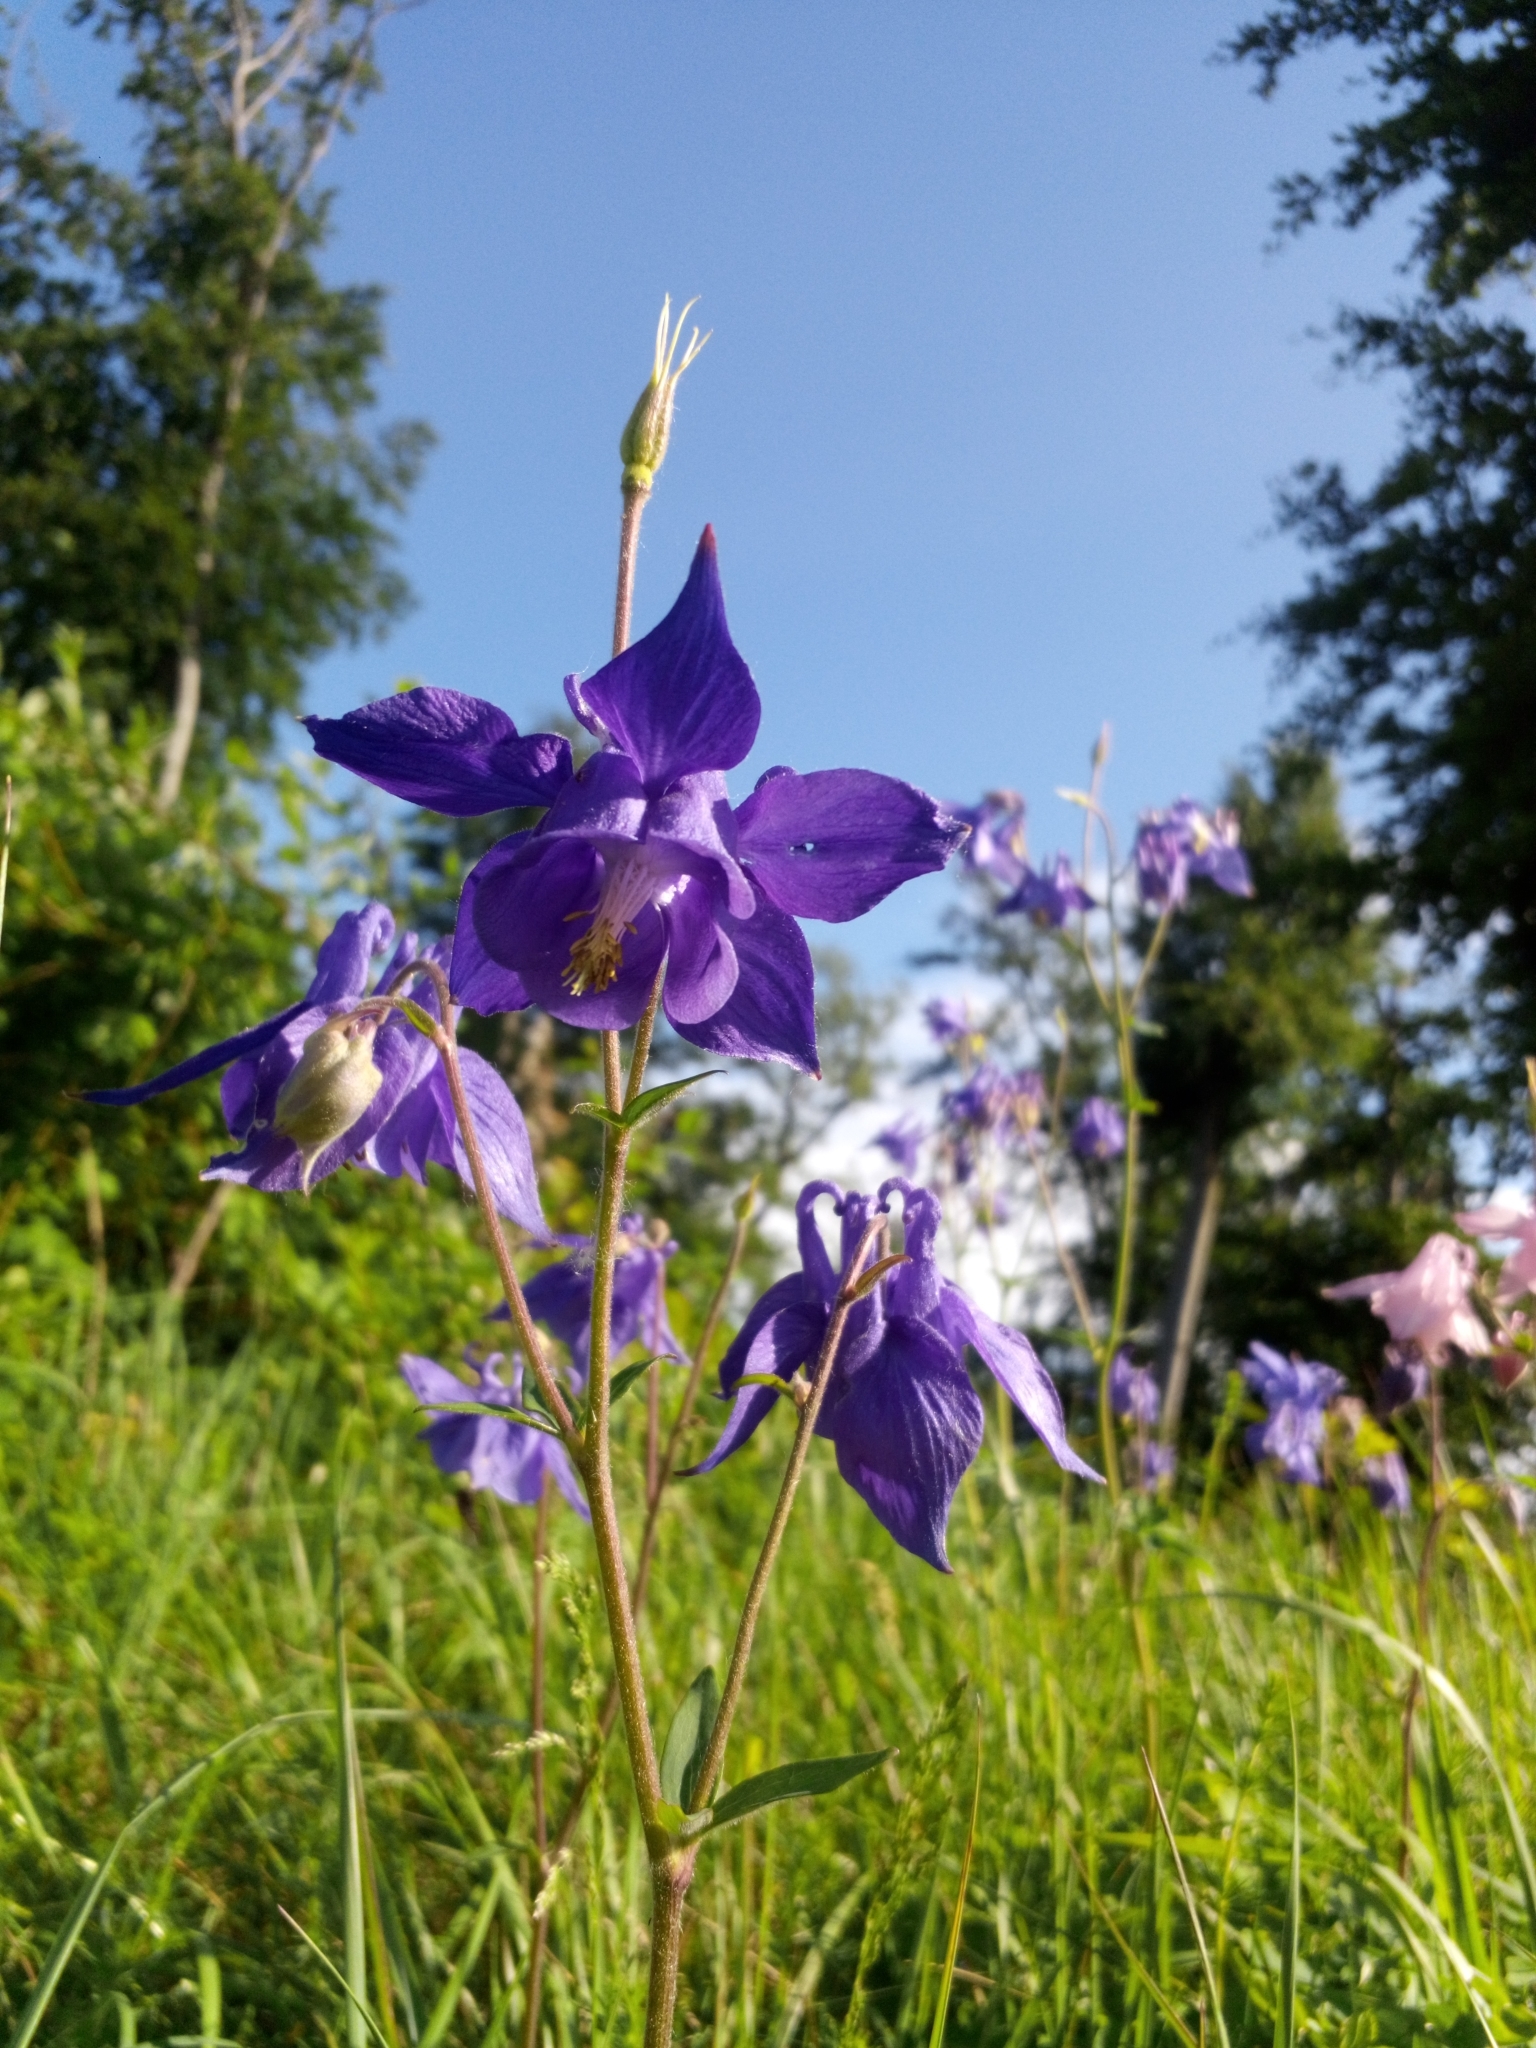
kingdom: Plantae
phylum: Tracheophyta
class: Magnoliopsida
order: Ranunculales
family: Ranunculaceae
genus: Aquilegia
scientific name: Aquilegia vulgaris
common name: Columbine
